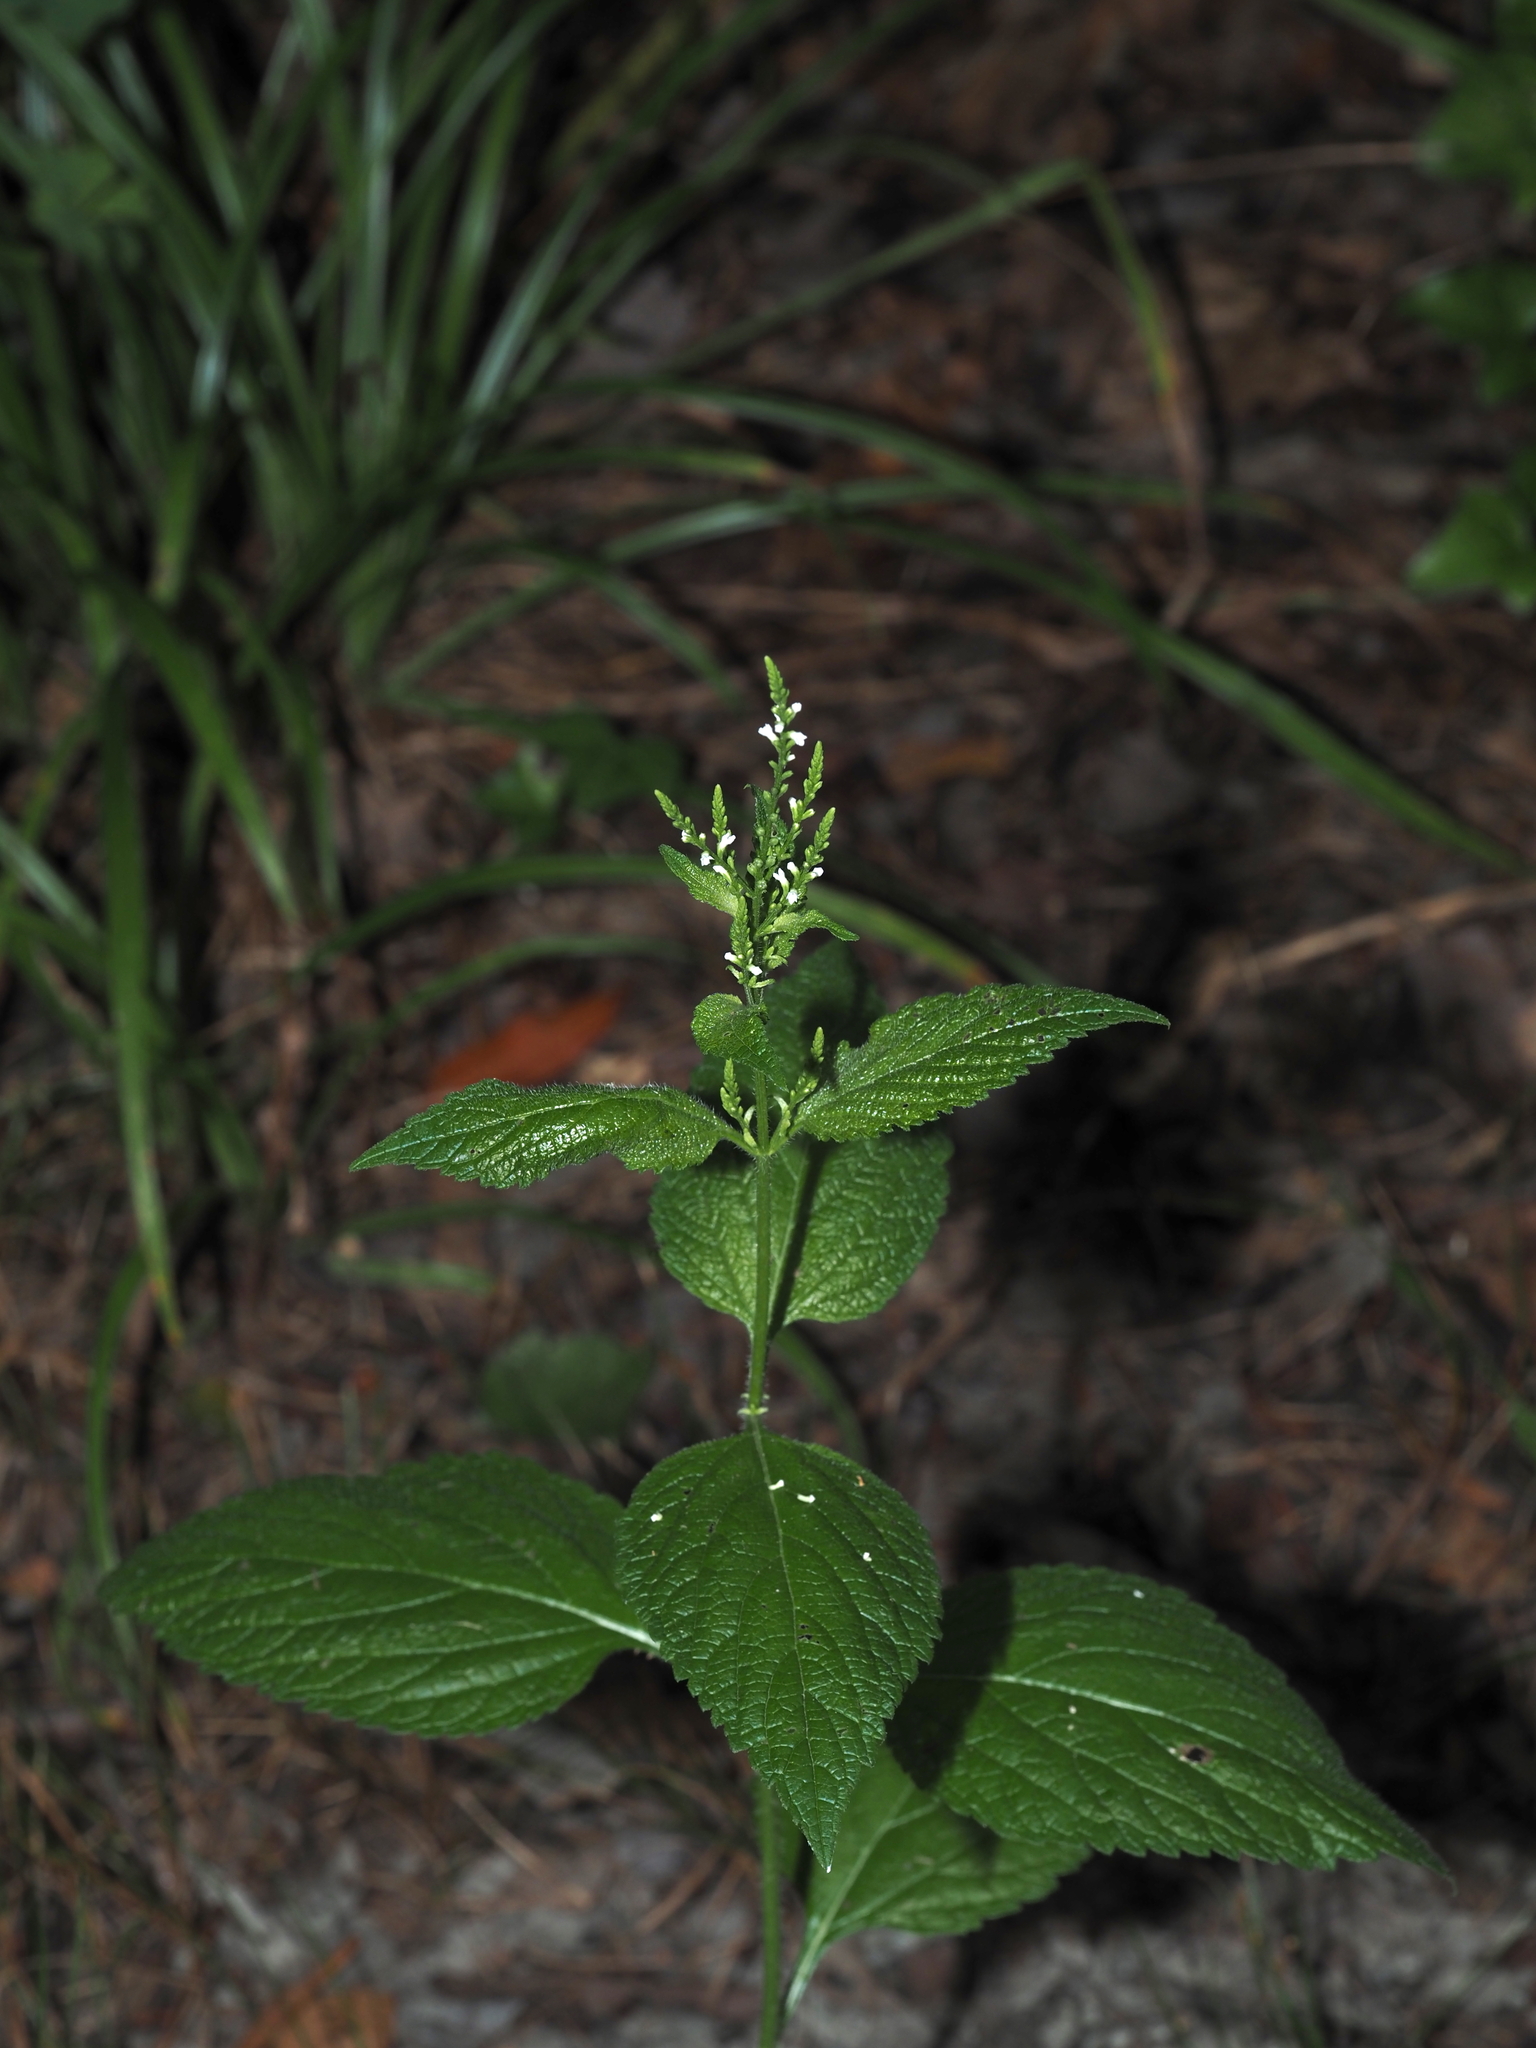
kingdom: Plantae
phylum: Tracheophyta
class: Magnoliopsida
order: Lamiales
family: Verbenaceae
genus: Verbena
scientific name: Verbena urticifolia
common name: Nettle-leaved vervain
